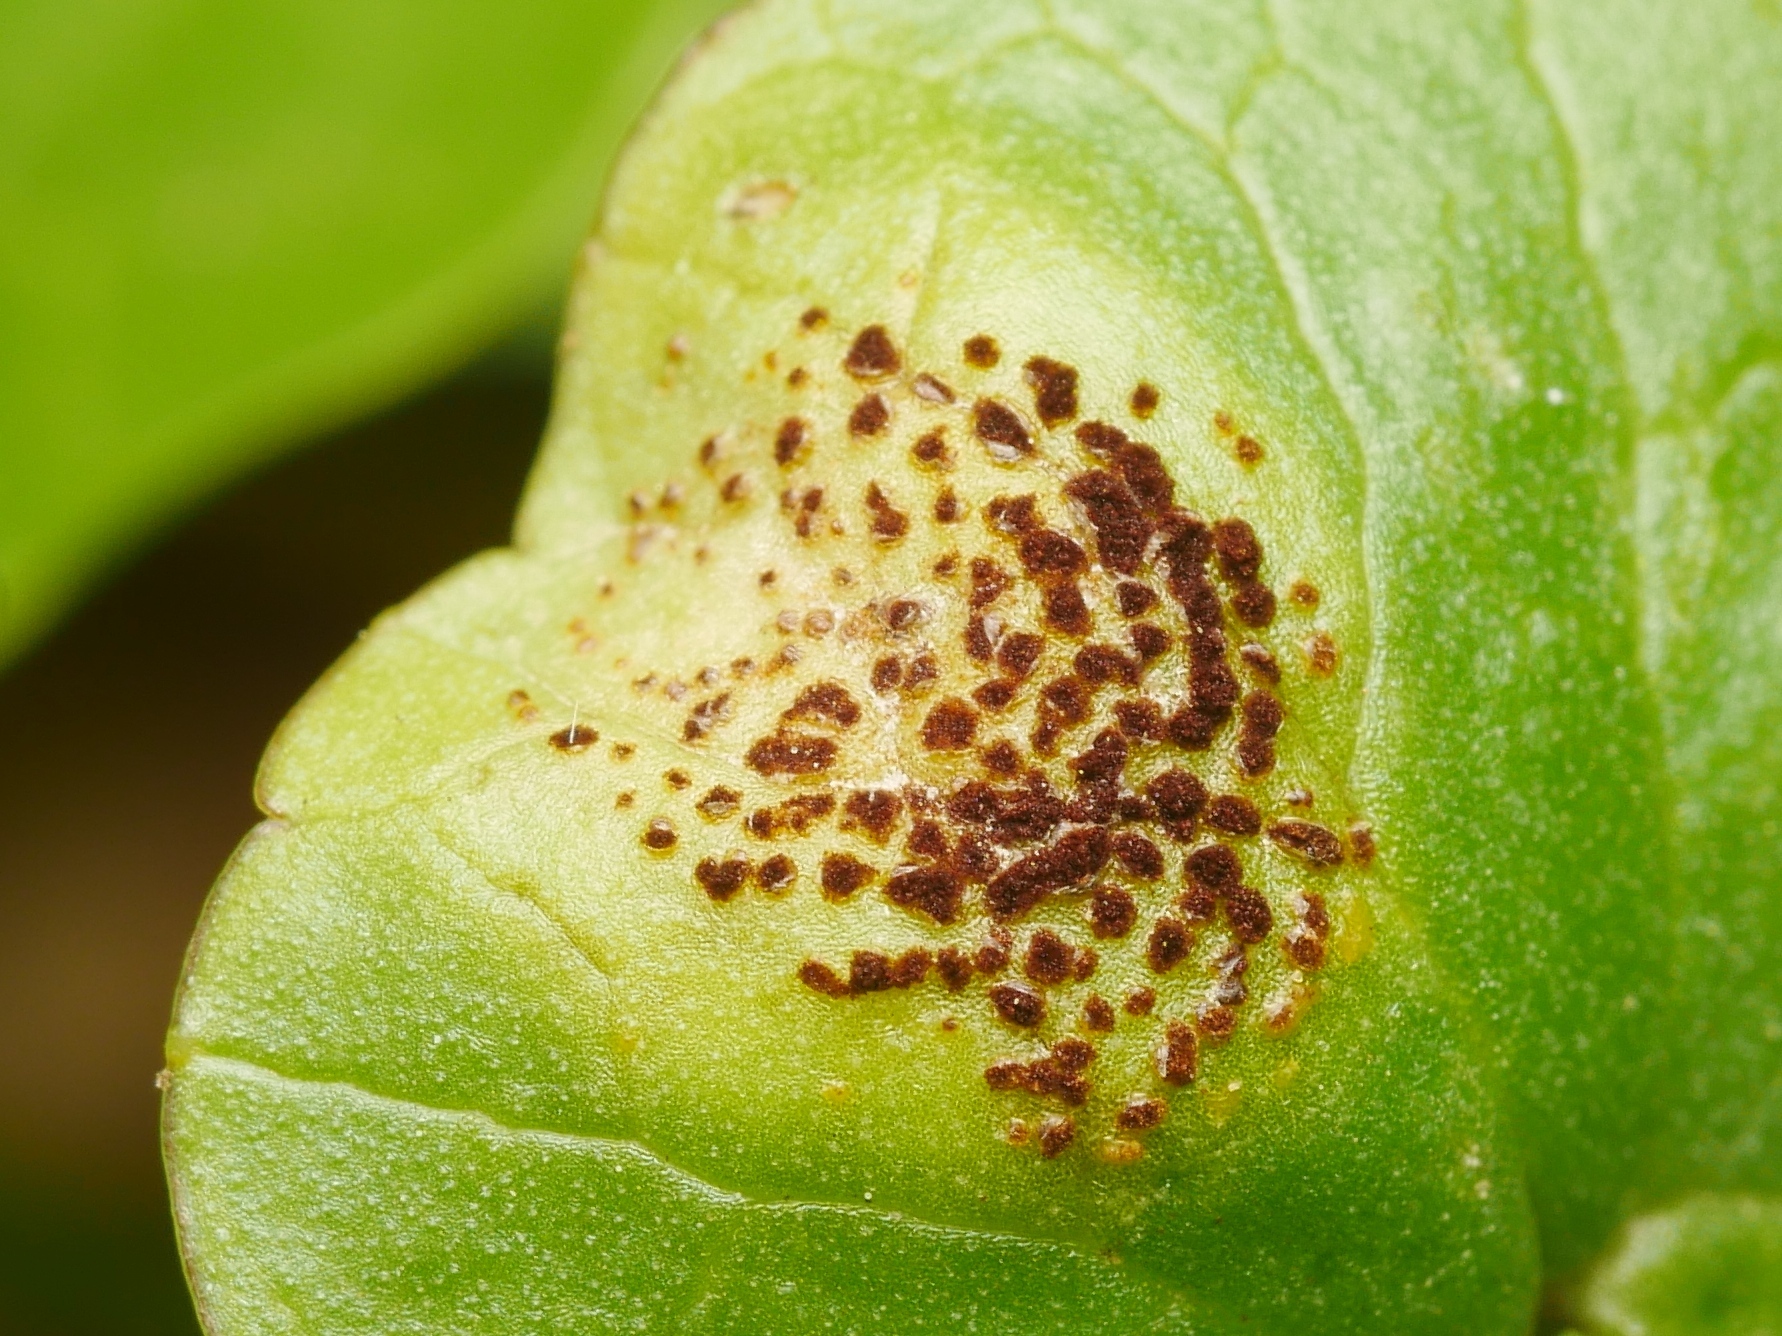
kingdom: Fungi
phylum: Basidiomycota
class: Pucciniomycetes
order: Pucciniales
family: Pucciniaceae
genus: Uromyces
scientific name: Uromyces ficariae
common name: Bitter chocolate rust
